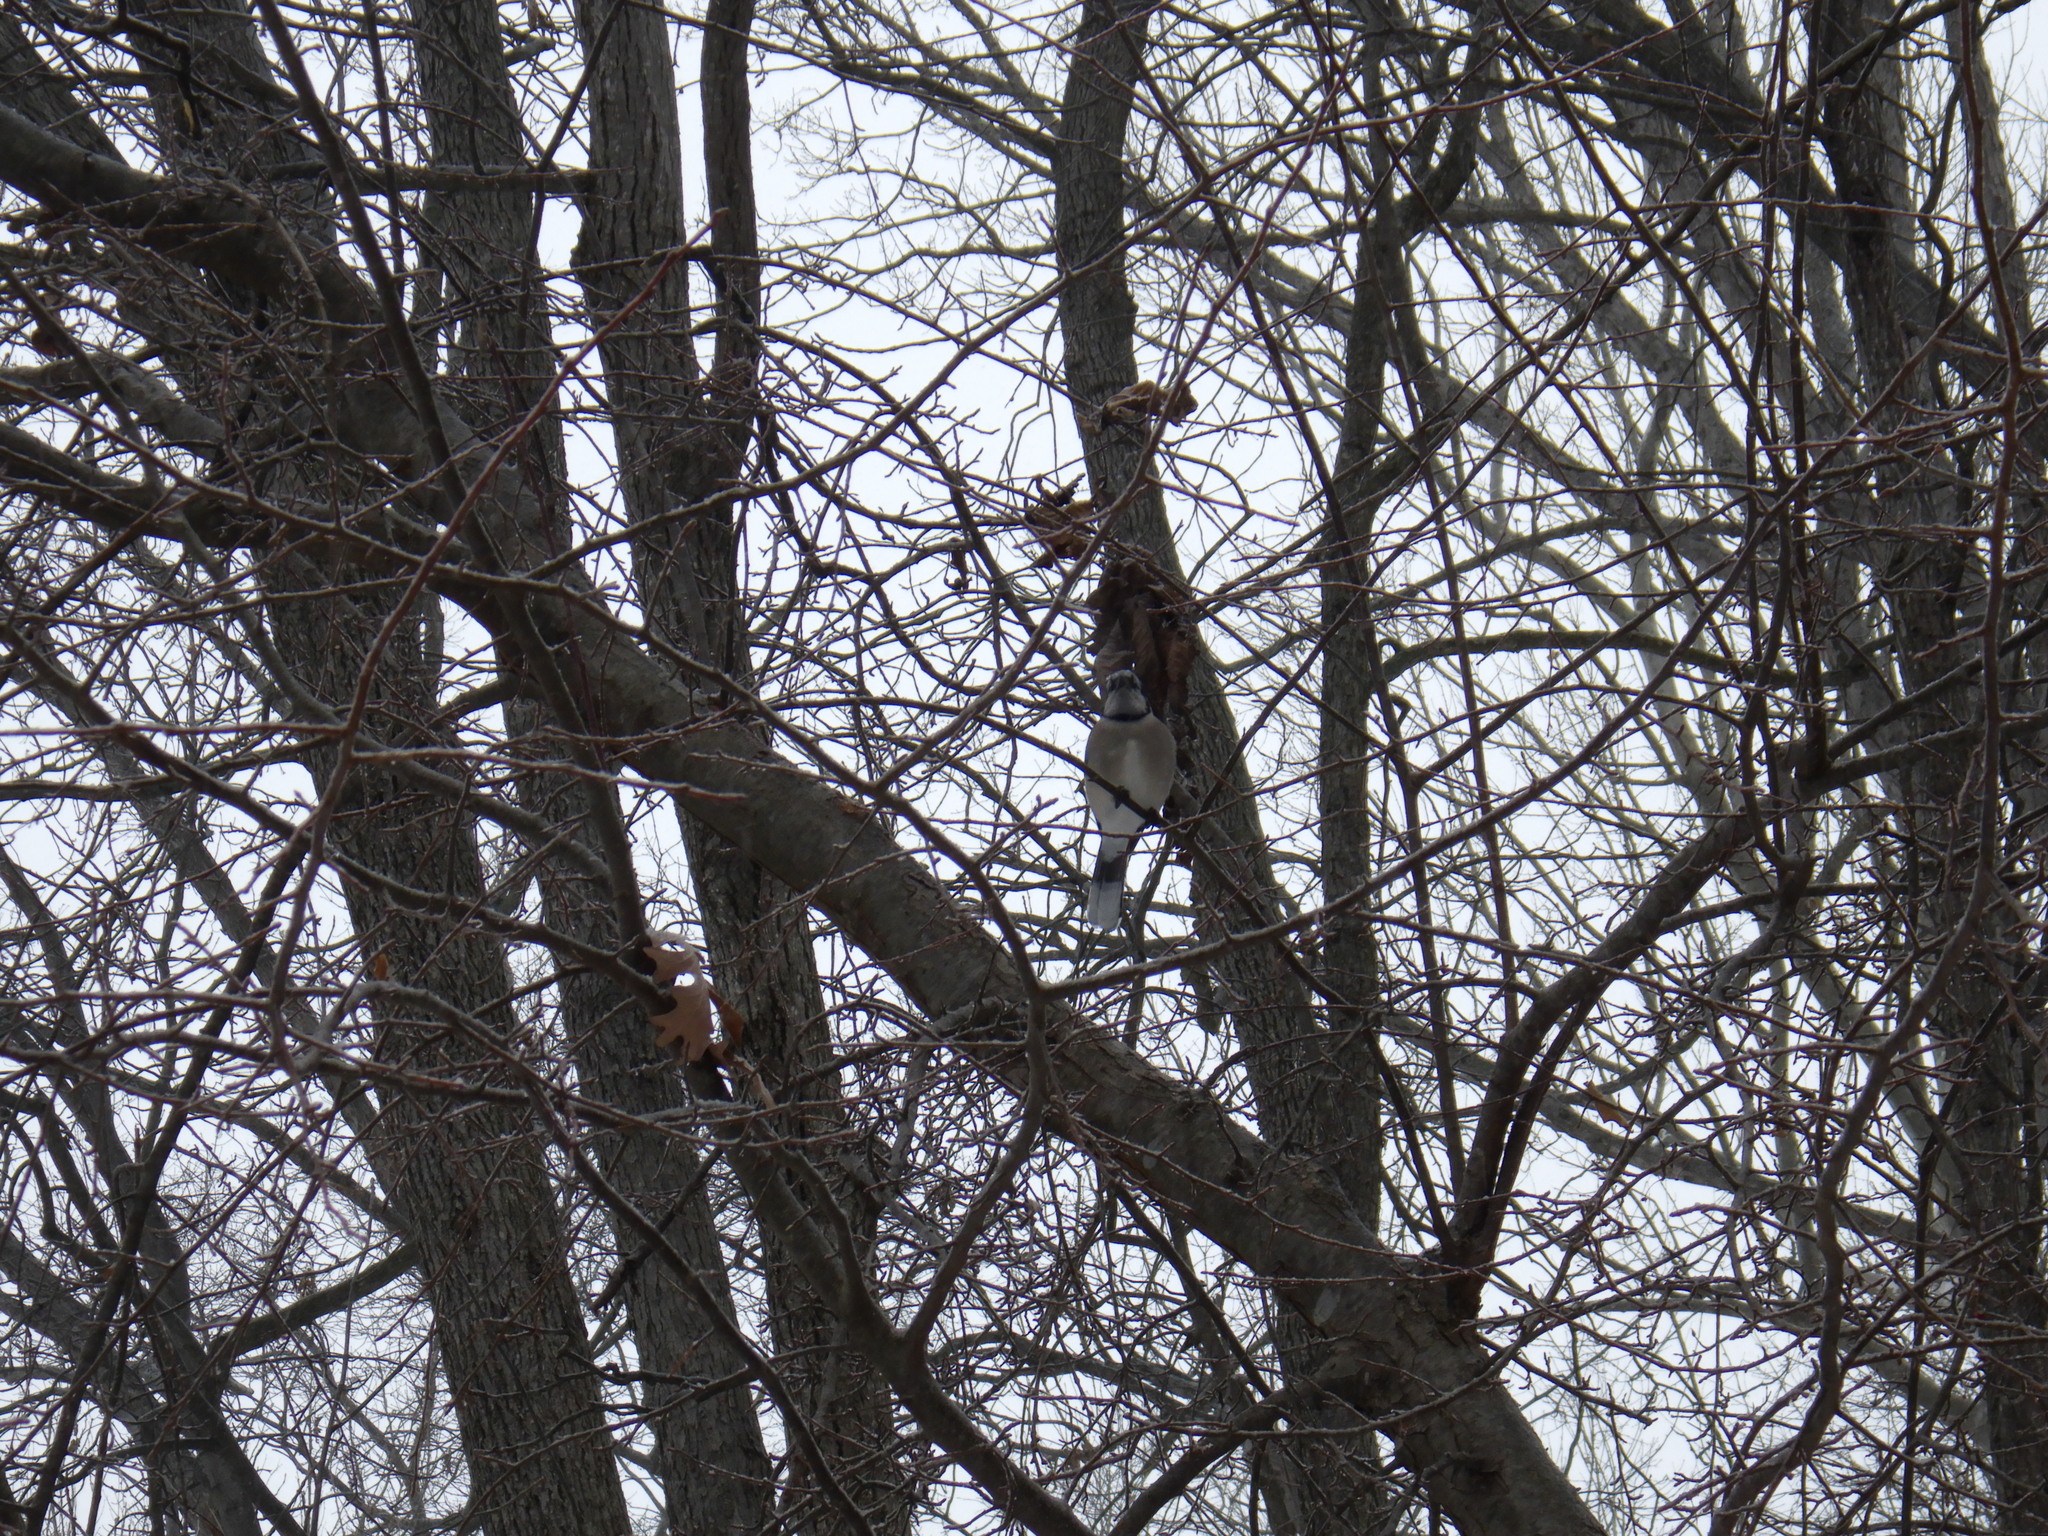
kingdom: Animalia
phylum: Chordata
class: Aves
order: Passeriformes
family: Corvidae
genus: Cyanocitta
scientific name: Cyanocitta cristata
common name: Blue jay
